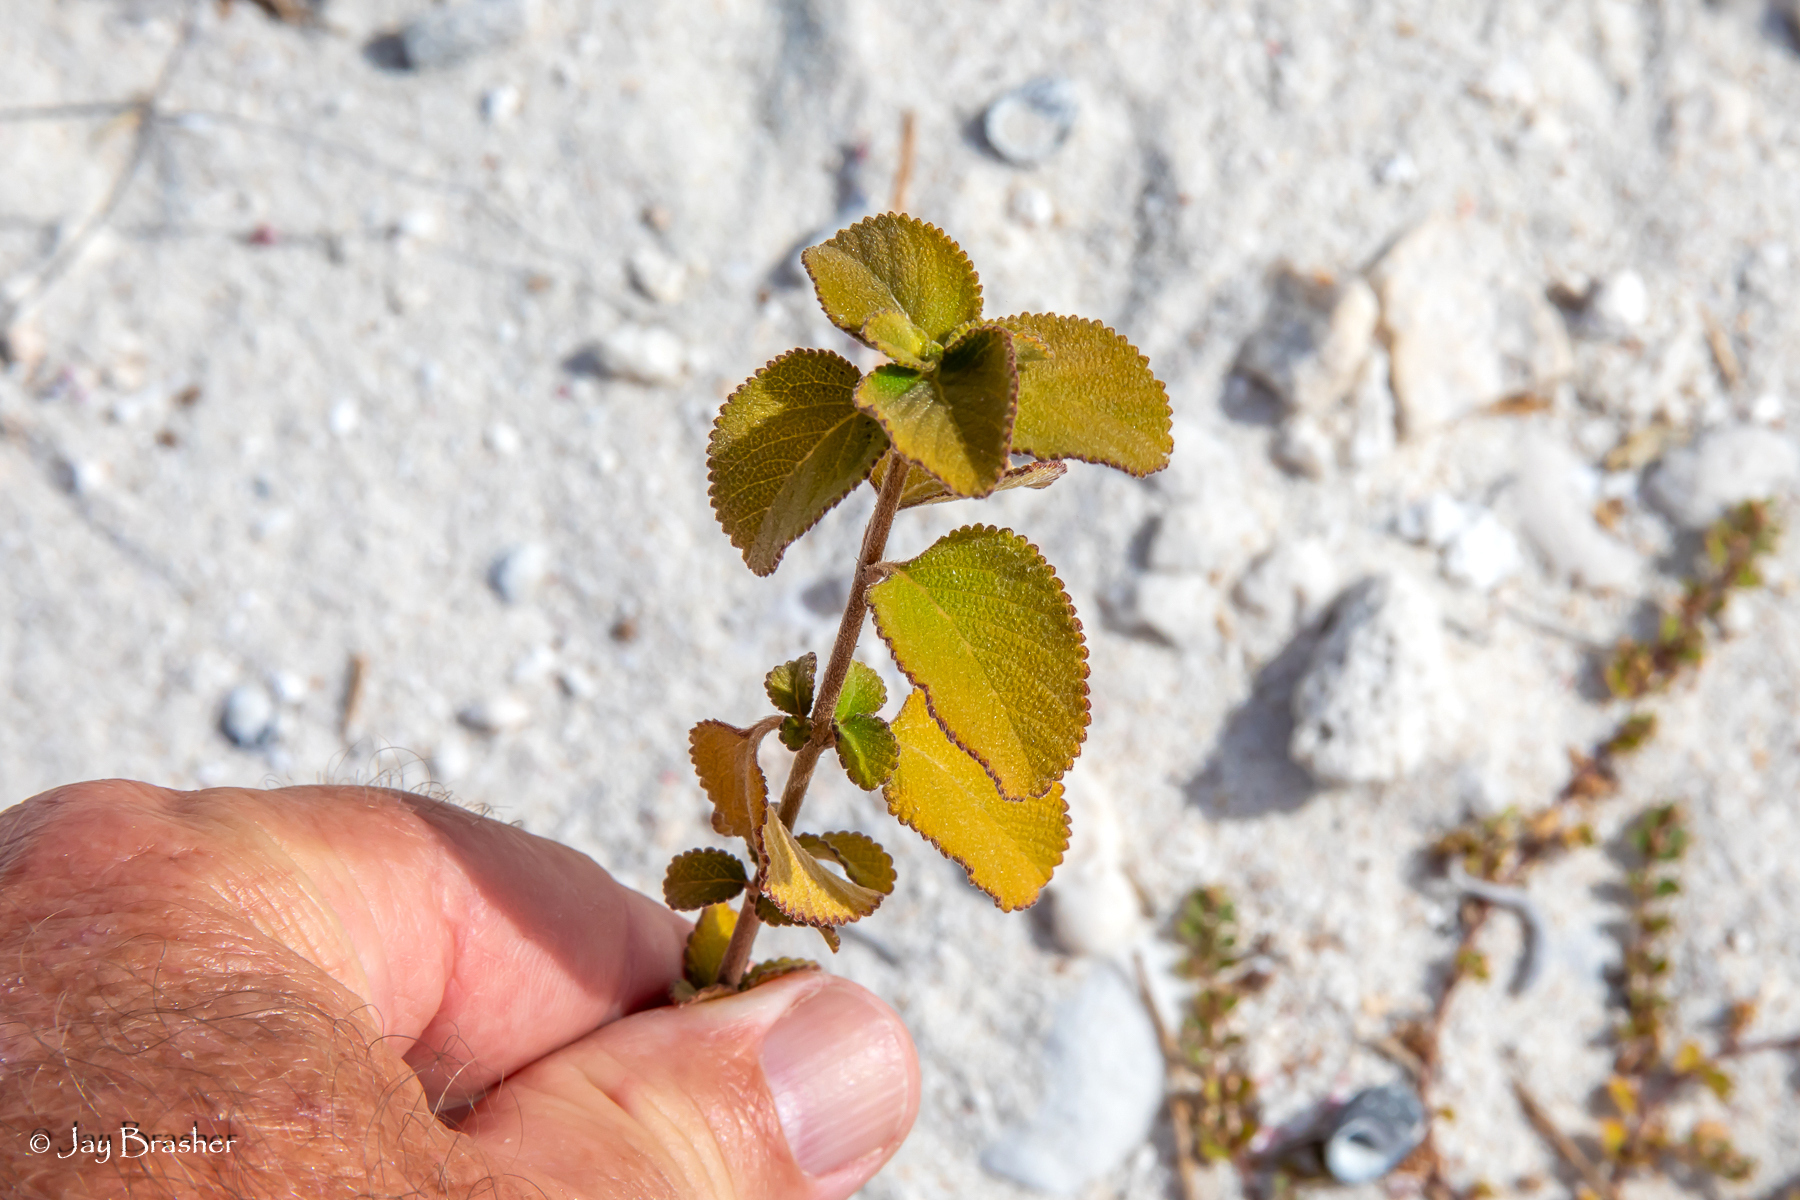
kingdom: Plantae
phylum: Tracheophyta
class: Magnoliopsida
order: Lamiales
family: Verbenaceae
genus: Lantana
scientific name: Lantana involucrata
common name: Black sage
